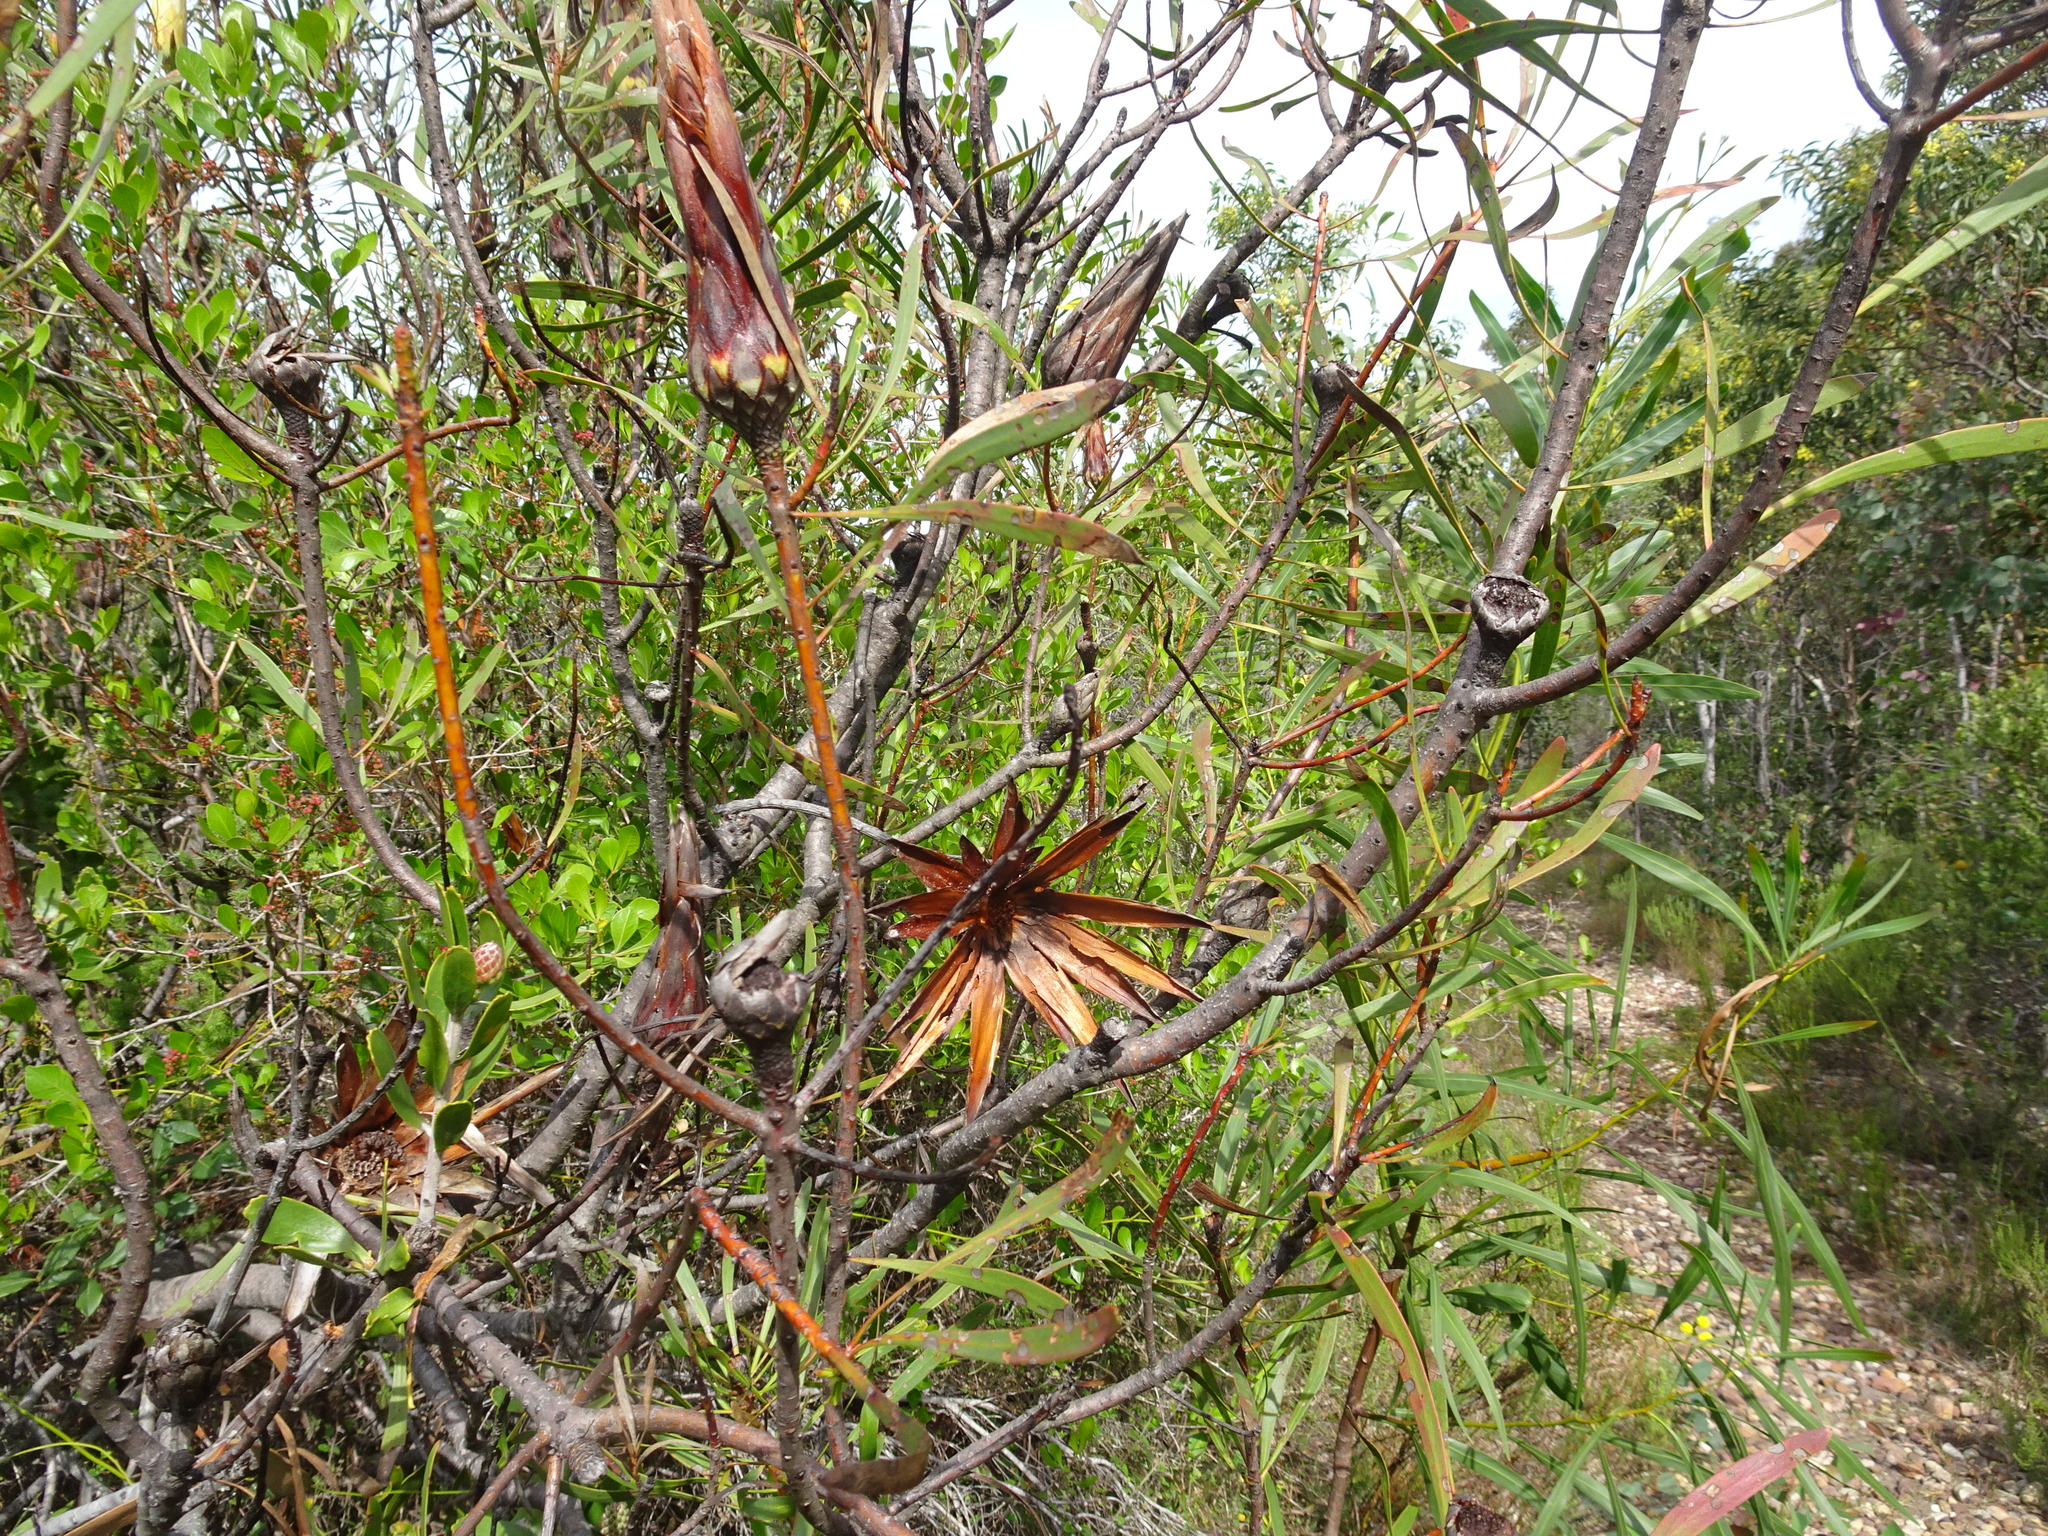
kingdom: Plantae
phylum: Tracheophyta
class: Magnoliopsida
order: Proteales
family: Proteaceae
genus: Protea
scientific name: Protea repens
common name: Sugarbush
